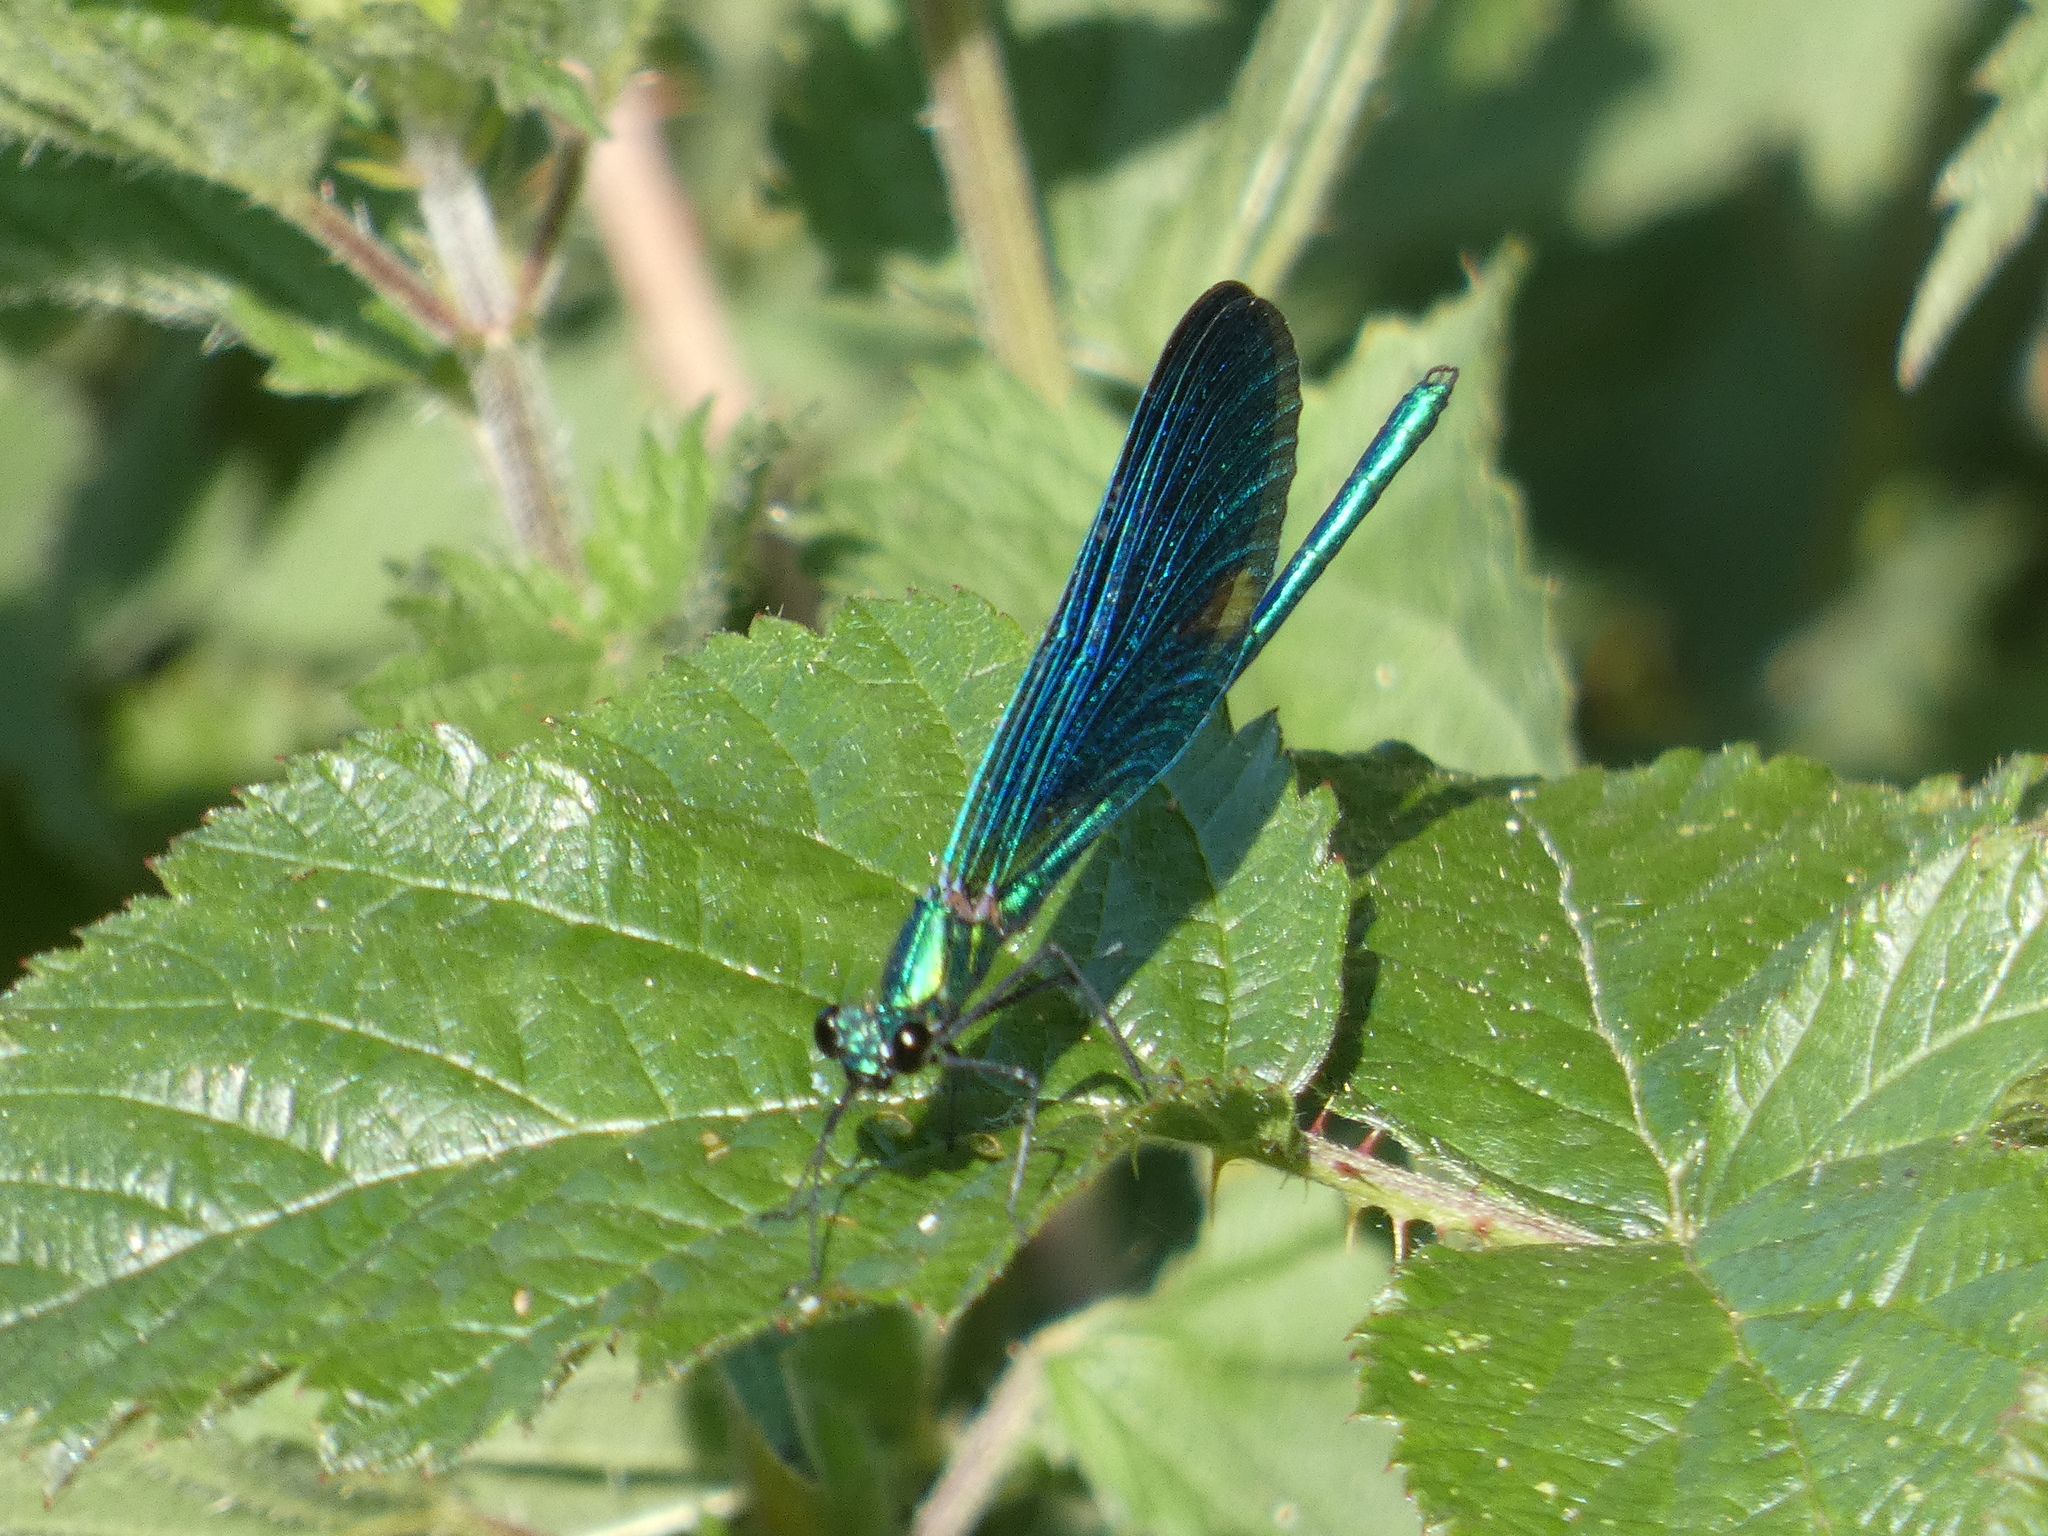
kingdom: Animalia
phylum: Arthropoda
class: Insecta
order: Odonata
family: Calopterygidae
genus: Calopteryx
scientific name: Calopteryx virgo
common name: Beautiful demoiselle
